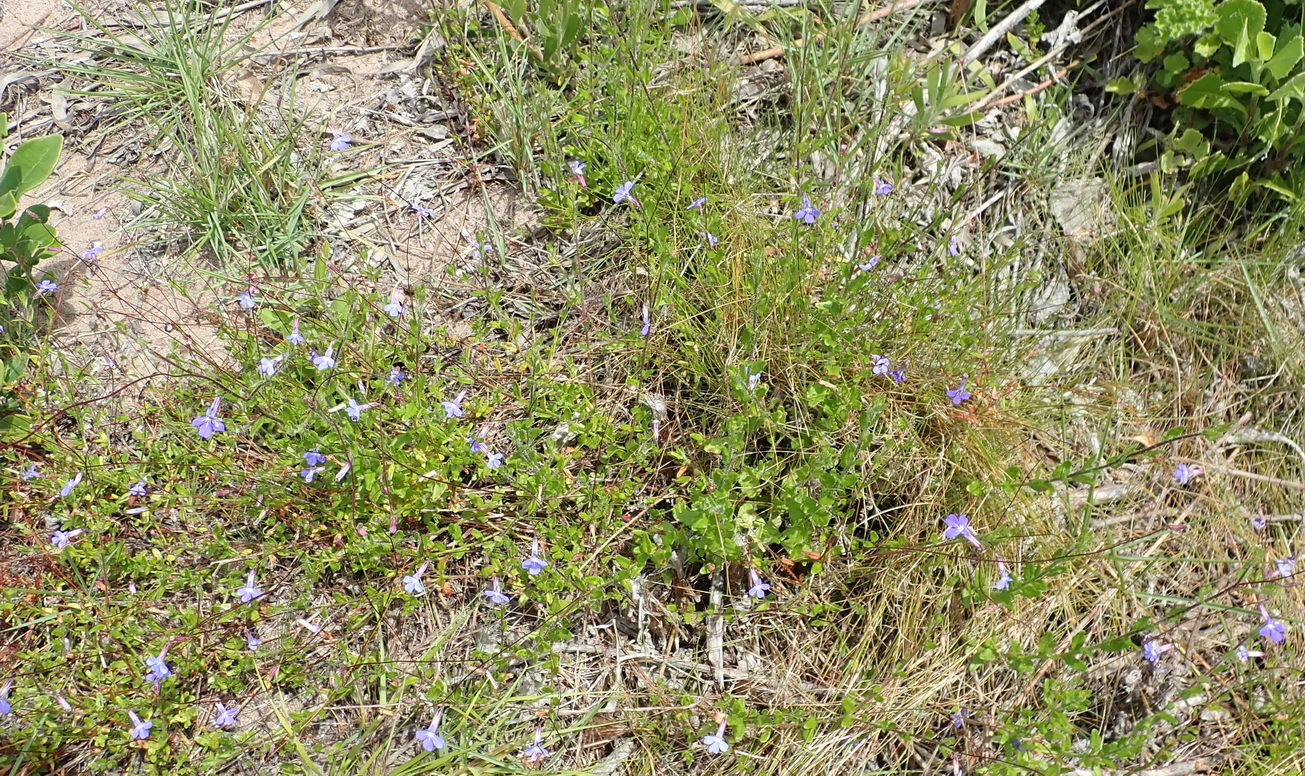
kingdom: Plantae
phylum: Tracheophyta
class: Magnoliopsida
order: Asterales
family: Campanulaceae
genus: Lobelia
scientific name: Lobelia neglecta
